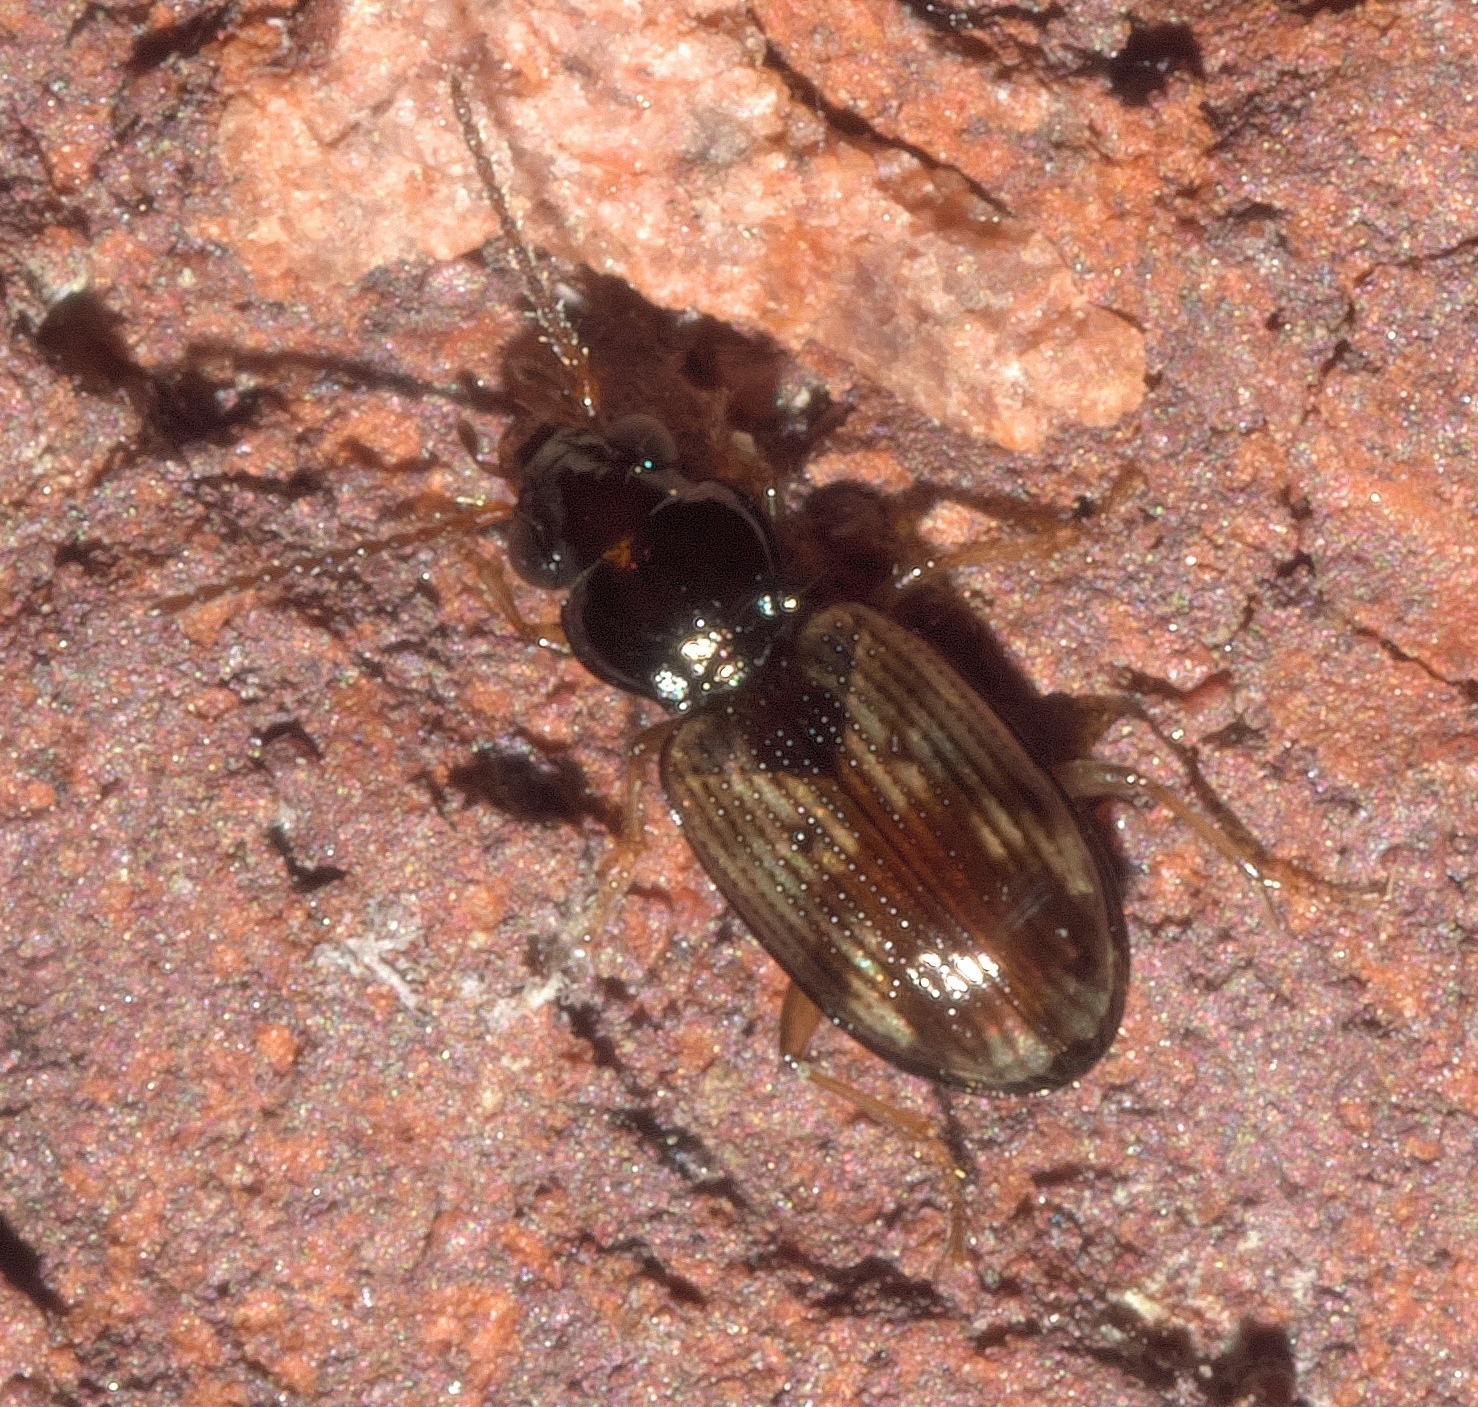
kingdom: Animalia
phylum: Arthropoda
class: Insecta
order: Coleoptera
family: Carabidae
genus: Bembidion
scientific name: Bembidion impotens
